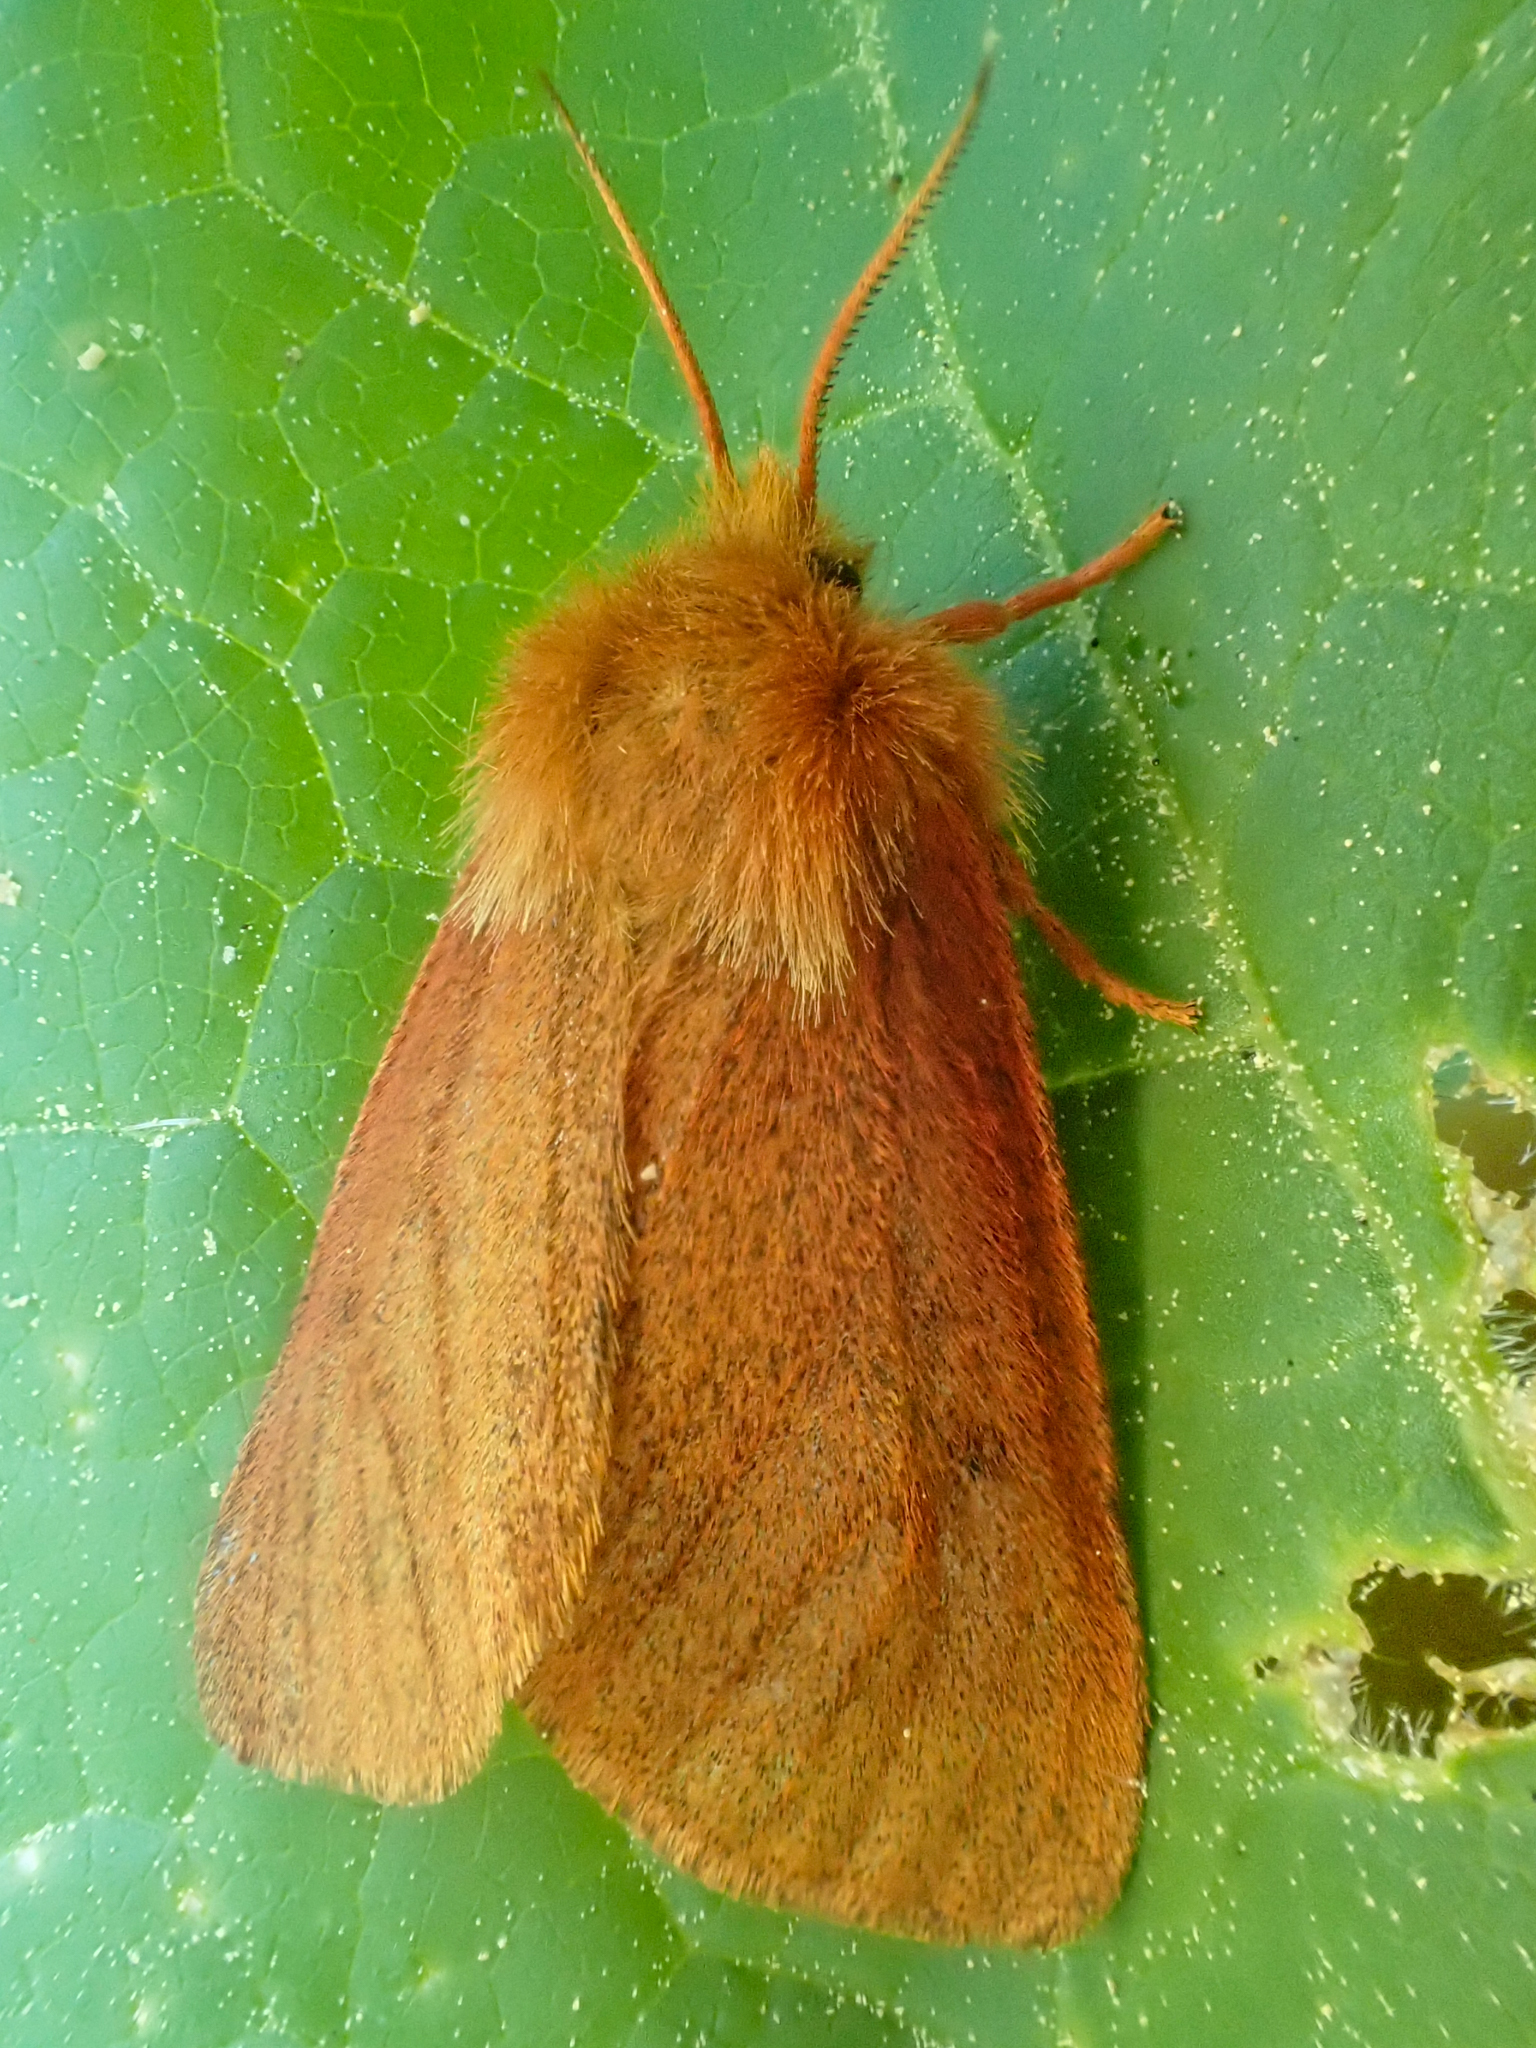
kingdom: Animalia
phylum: Arthropoda
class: Insecta
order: Lepidoptera
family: Erebidae
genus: Spilosoma
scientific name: Spilosoma pteridis
